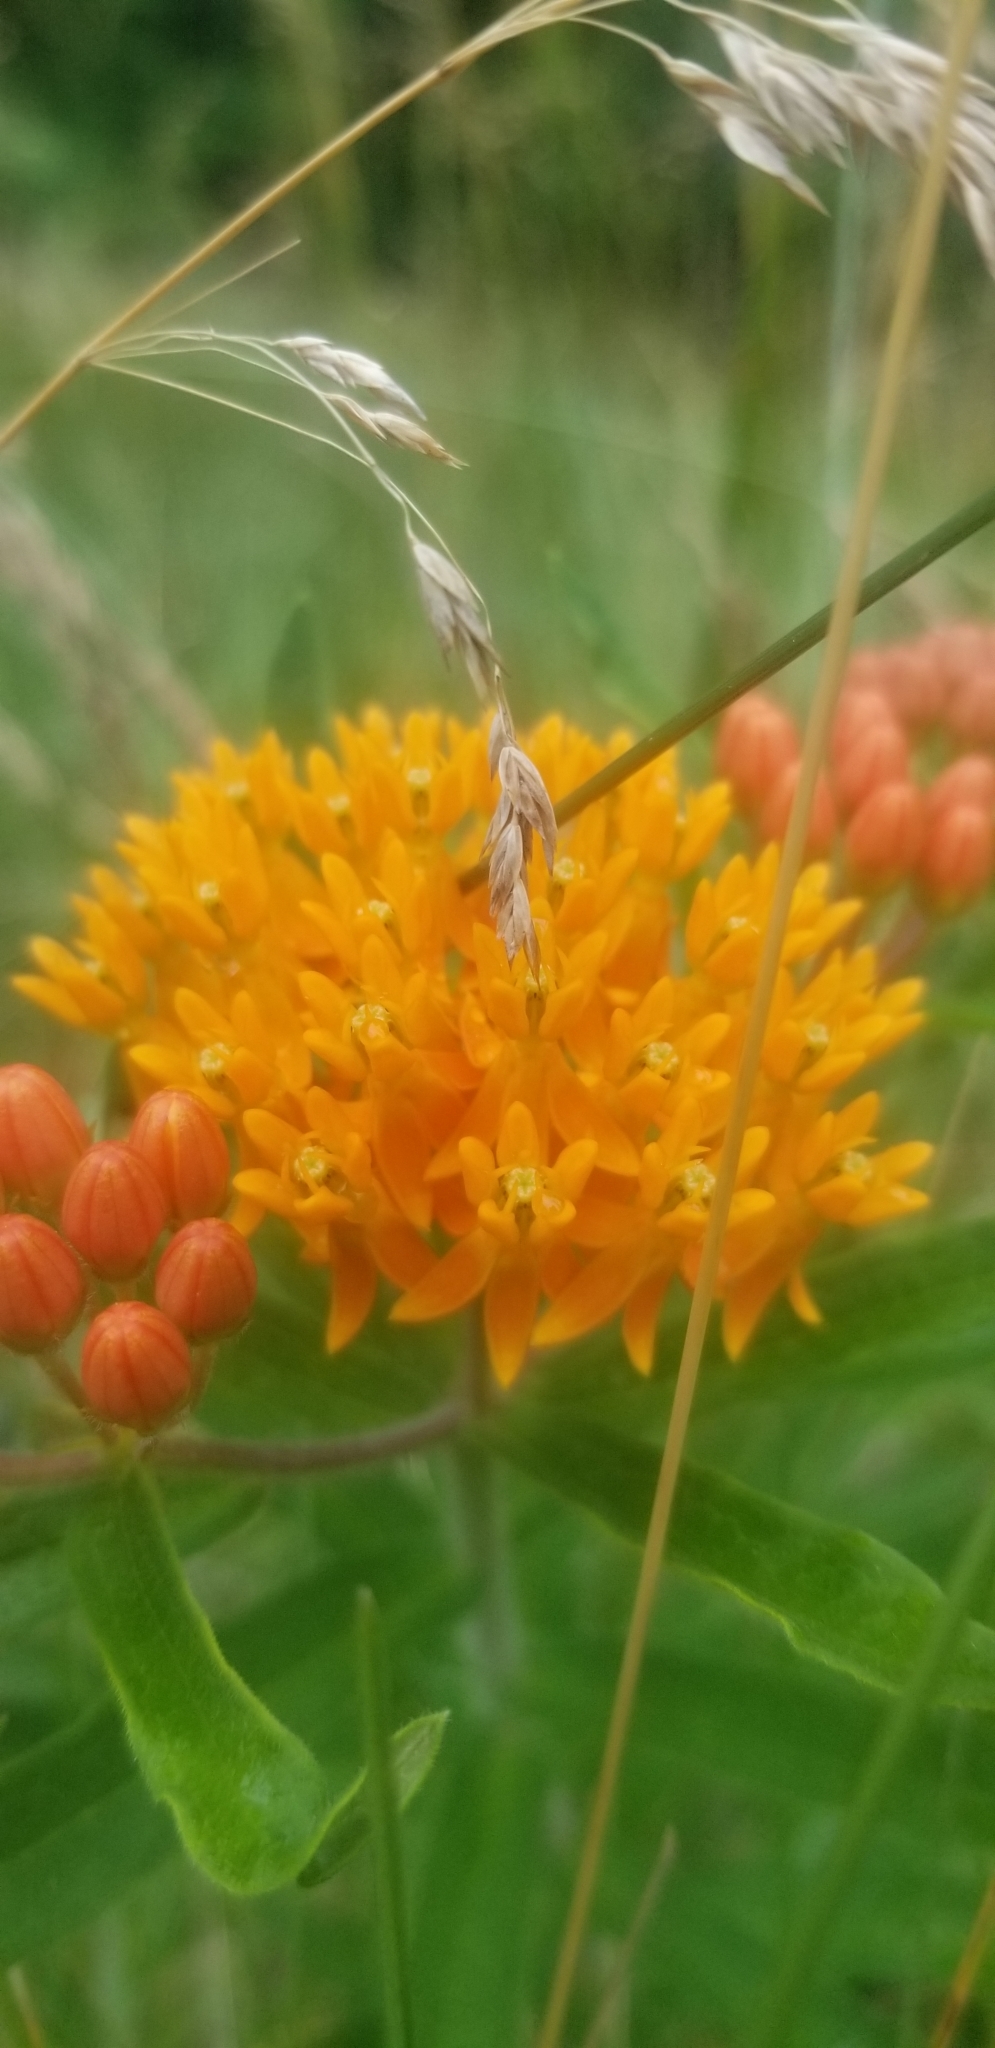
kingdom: Plantae
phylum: Tracheophyta
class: Magnoliopsida
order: Gentianales
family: Apocynaceae
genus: Asclepias
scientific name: Asclepias tuberosa
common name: Butterfly milkweed
